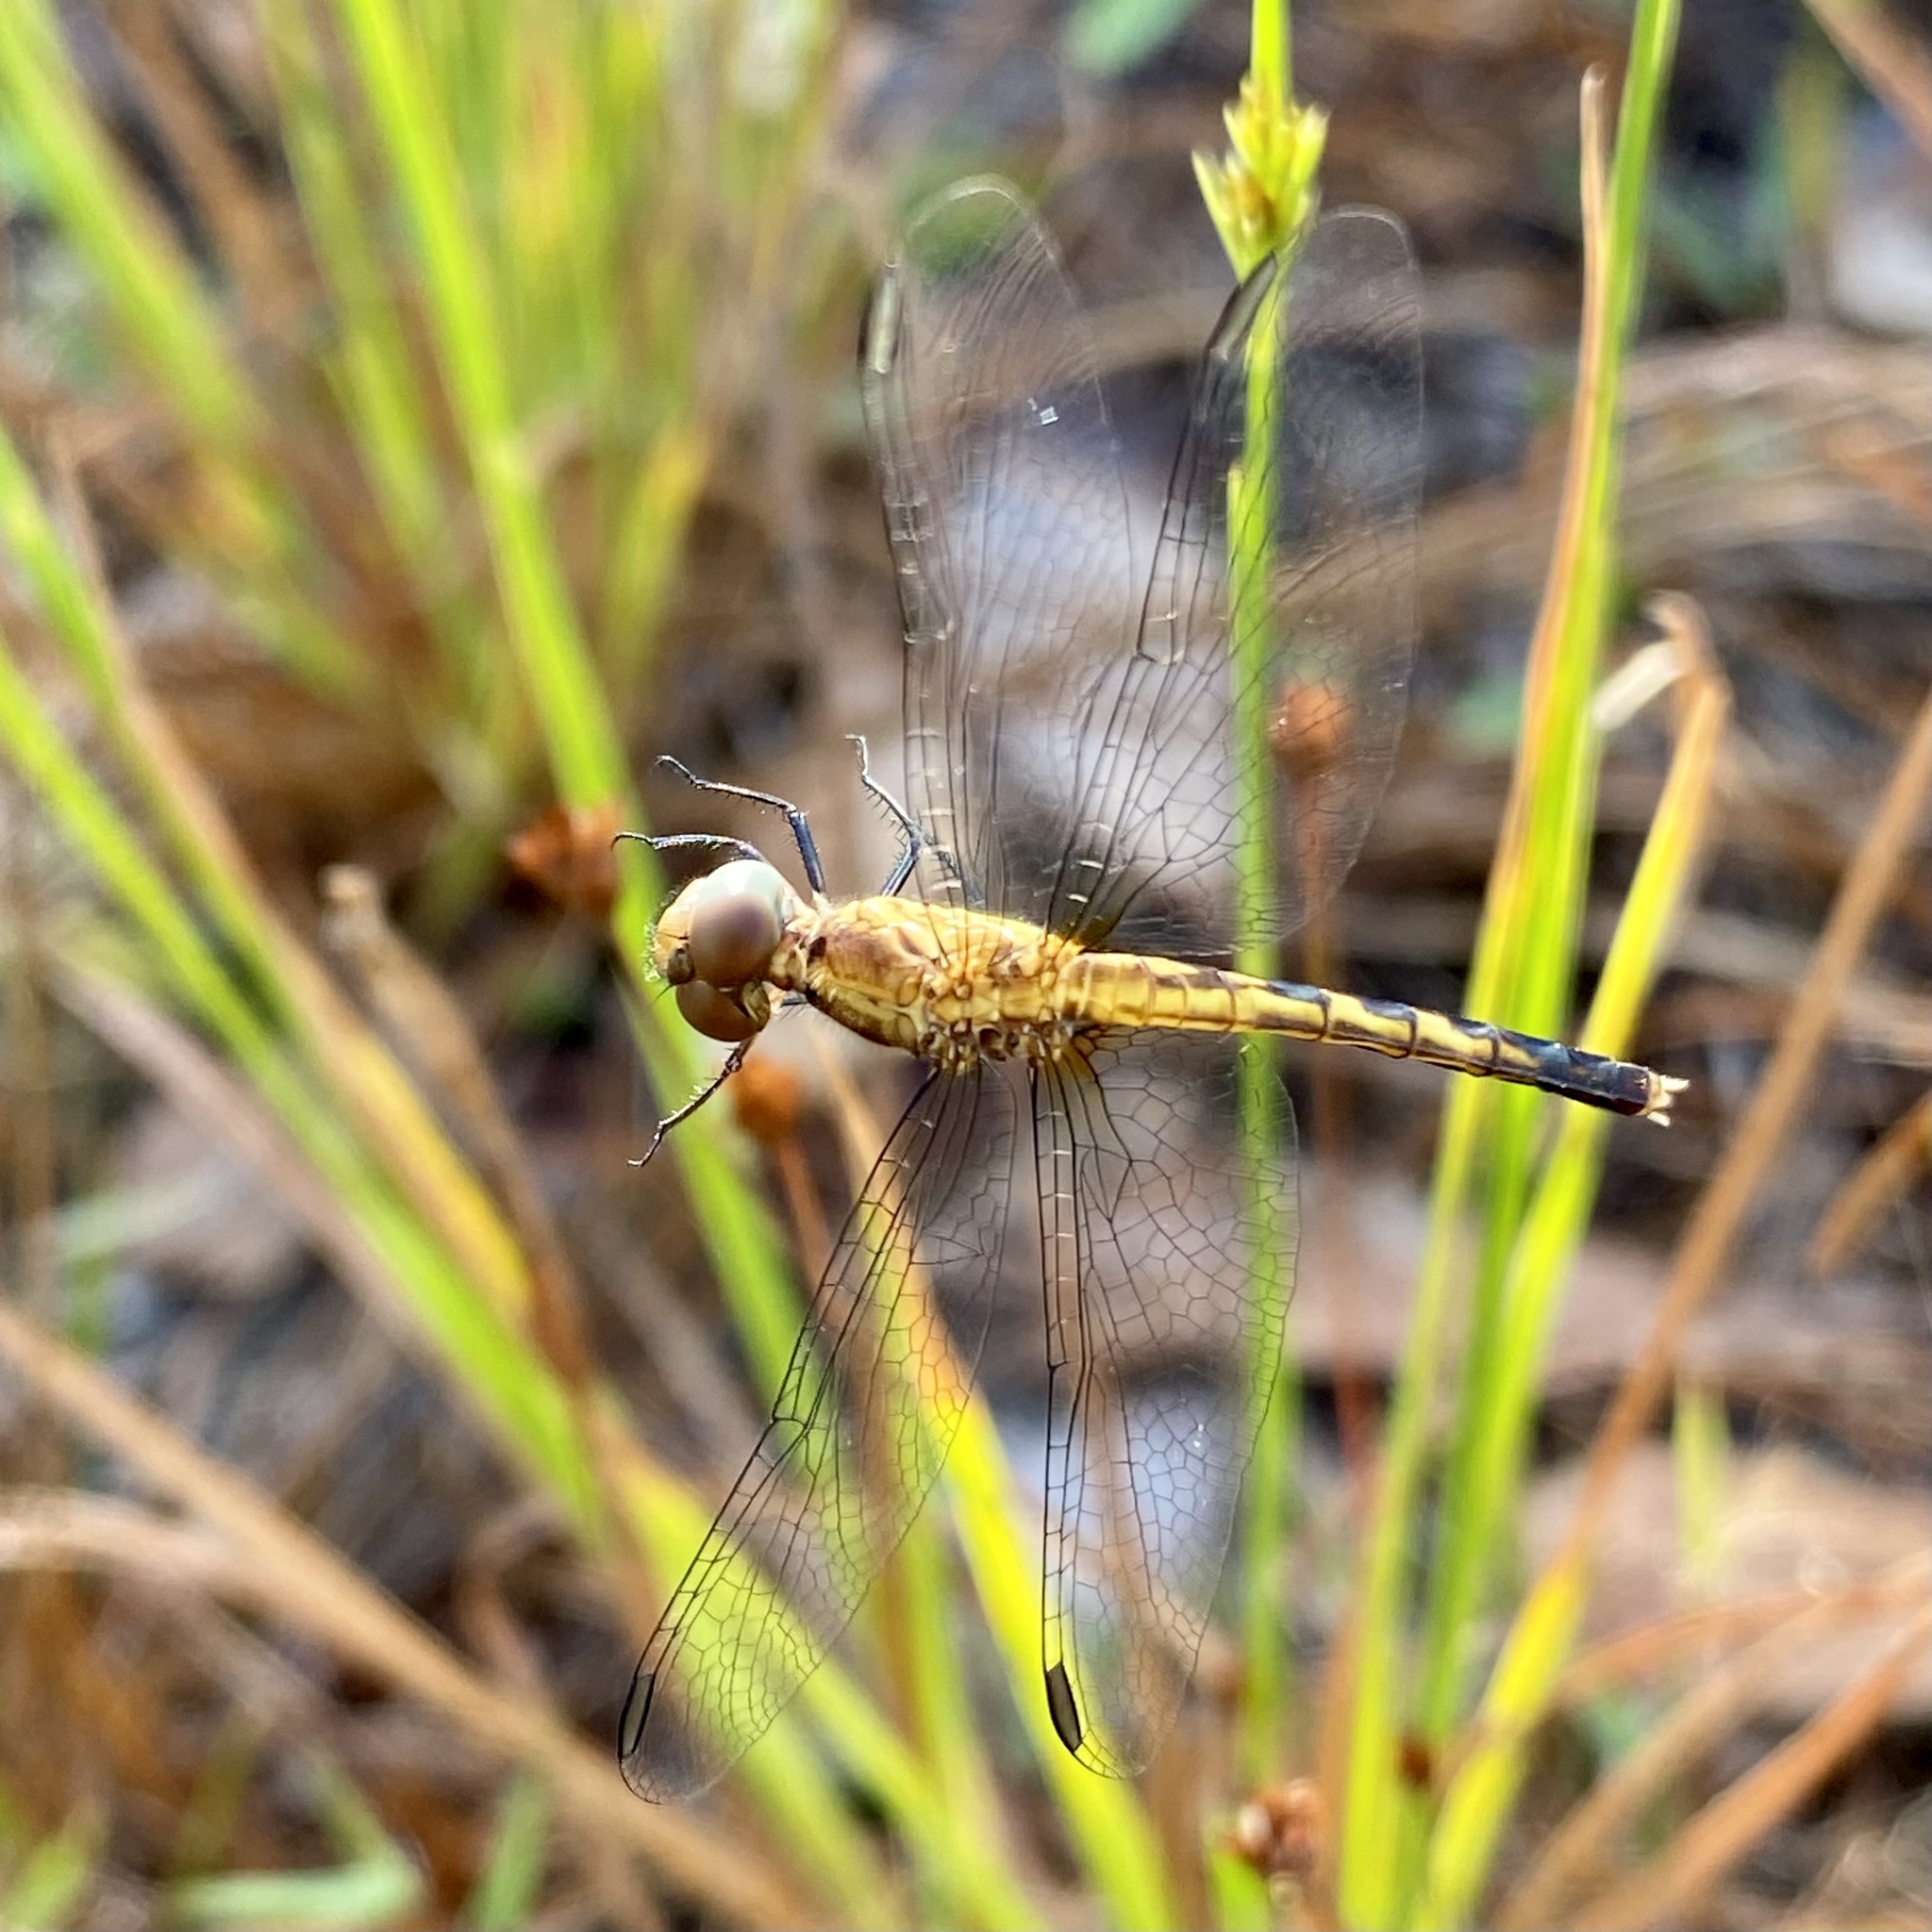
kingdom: Animalia
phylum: Arthropoda
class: Insecta
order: Odonata
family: Libellulidae
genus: Erythrodiplax
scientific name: Erythrodiplax minuscula
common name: Little blue dragonlet
